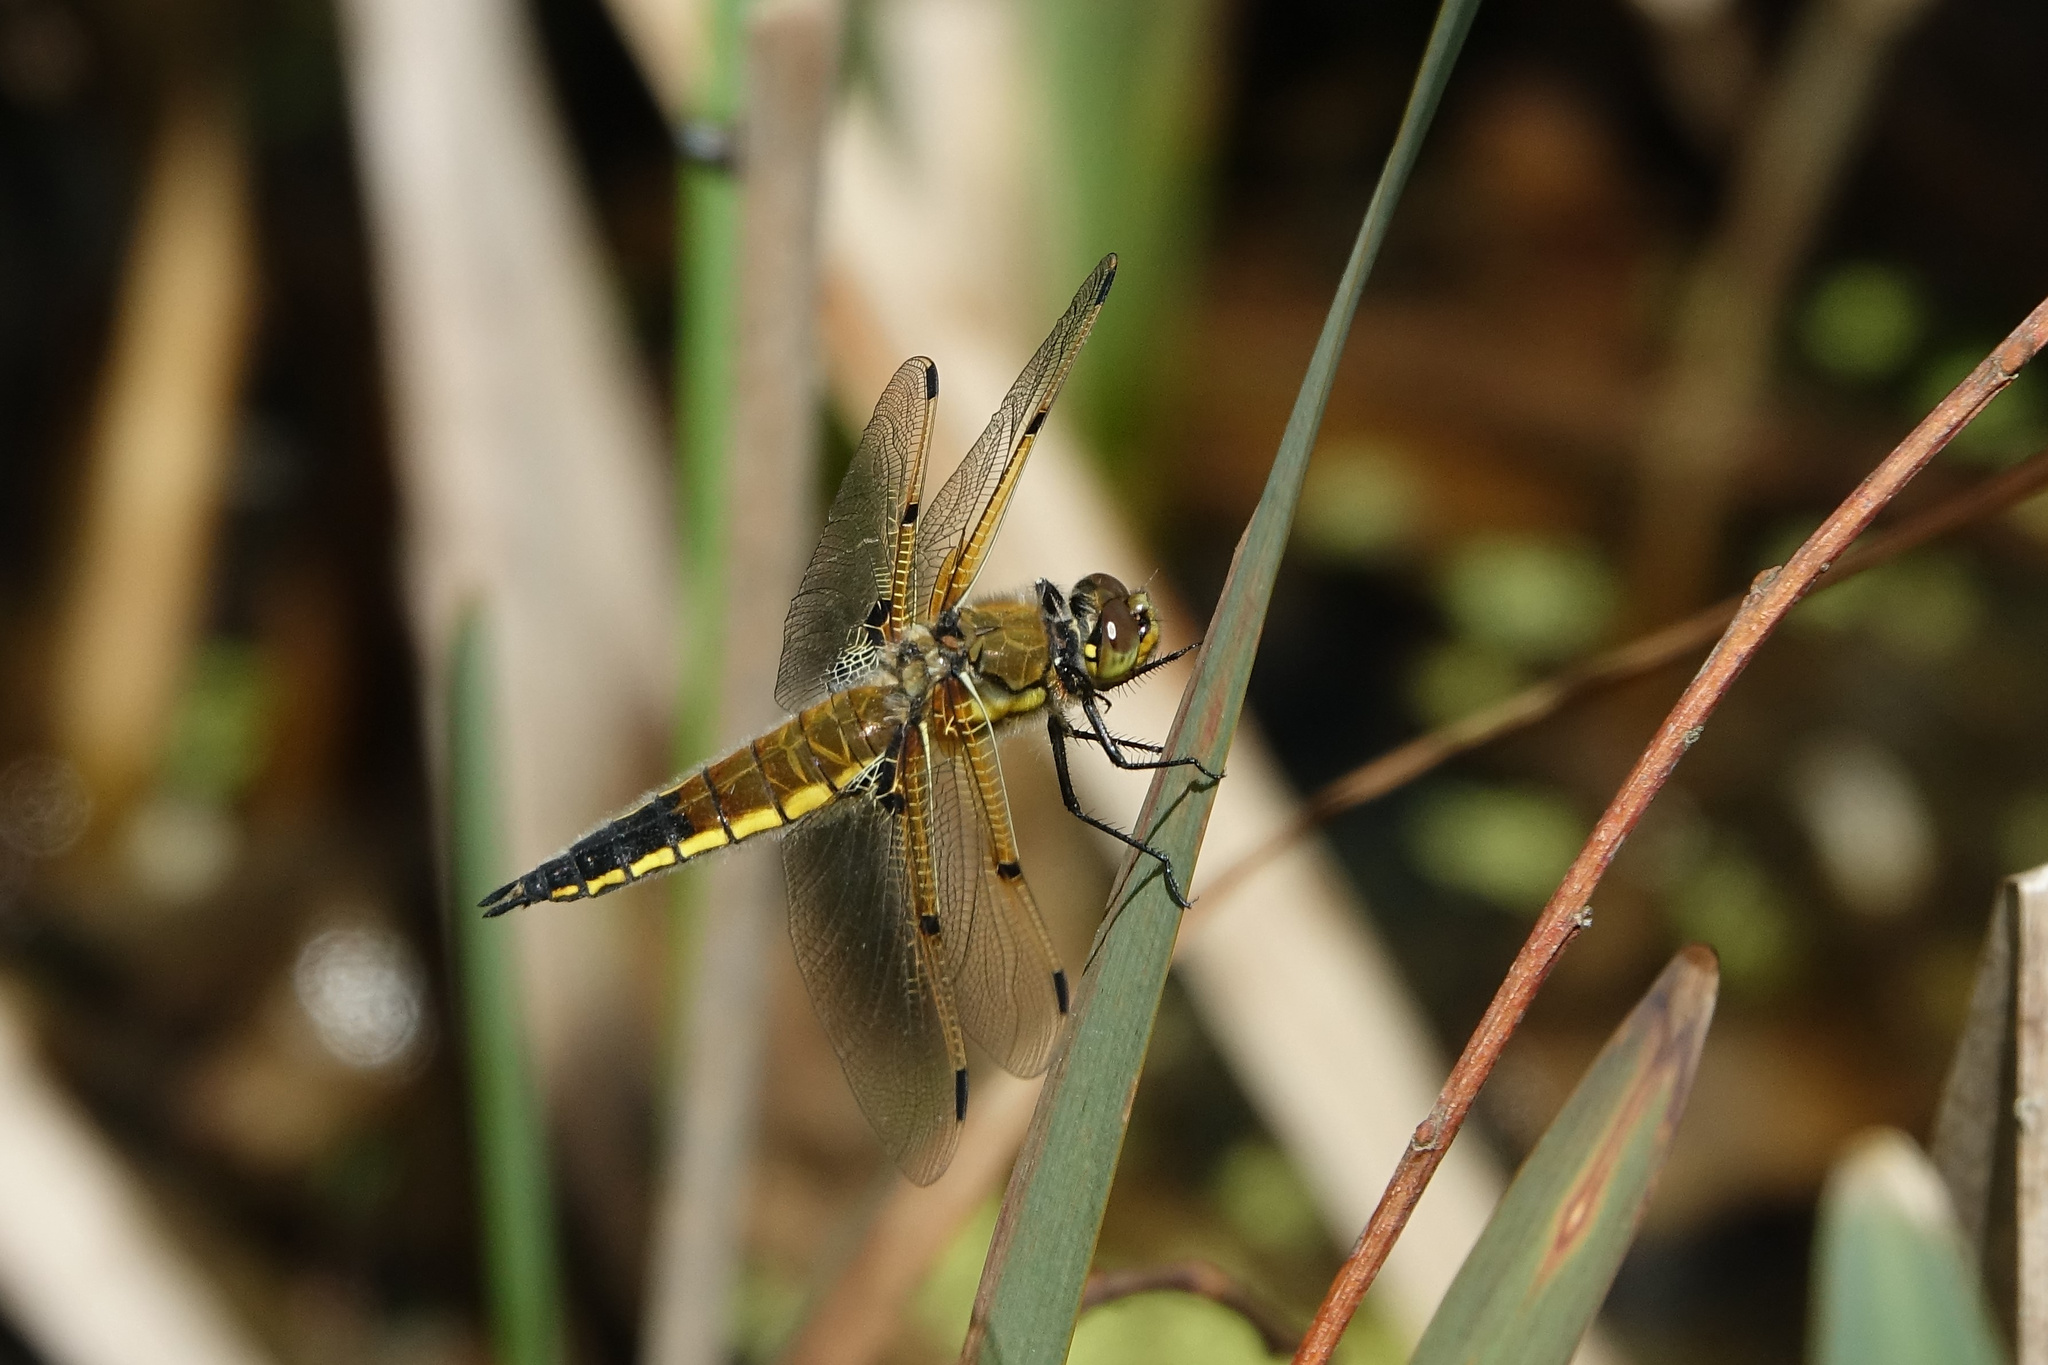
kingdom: Animalia
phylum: Arthropoda
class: Insecta
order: Odonata
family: Libellulidae
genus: Libellula
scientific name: Libellula quadrimaculata
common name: Four-spotted chaser
